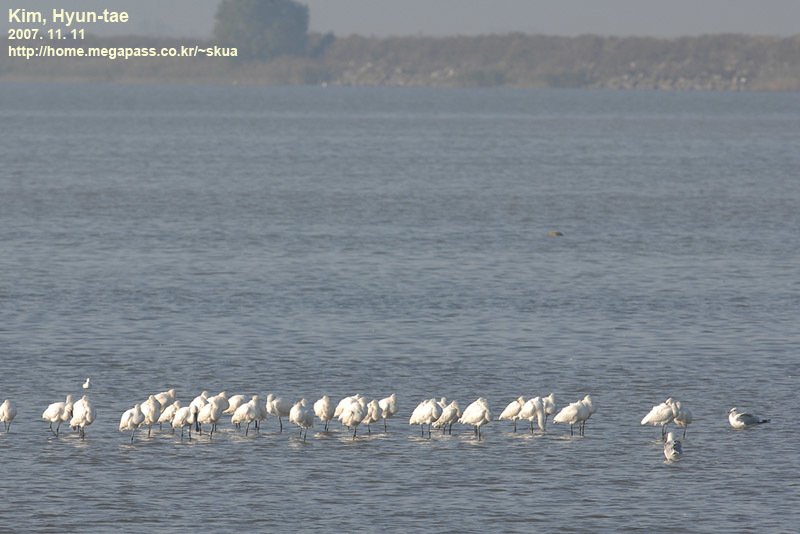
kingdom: Animalia
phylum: Chordata
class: Aves
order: Pelecaniformes
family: Threskiornithidae
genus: Platalea
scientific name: Platalea leucorodia
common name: Eurasian spoonbill
